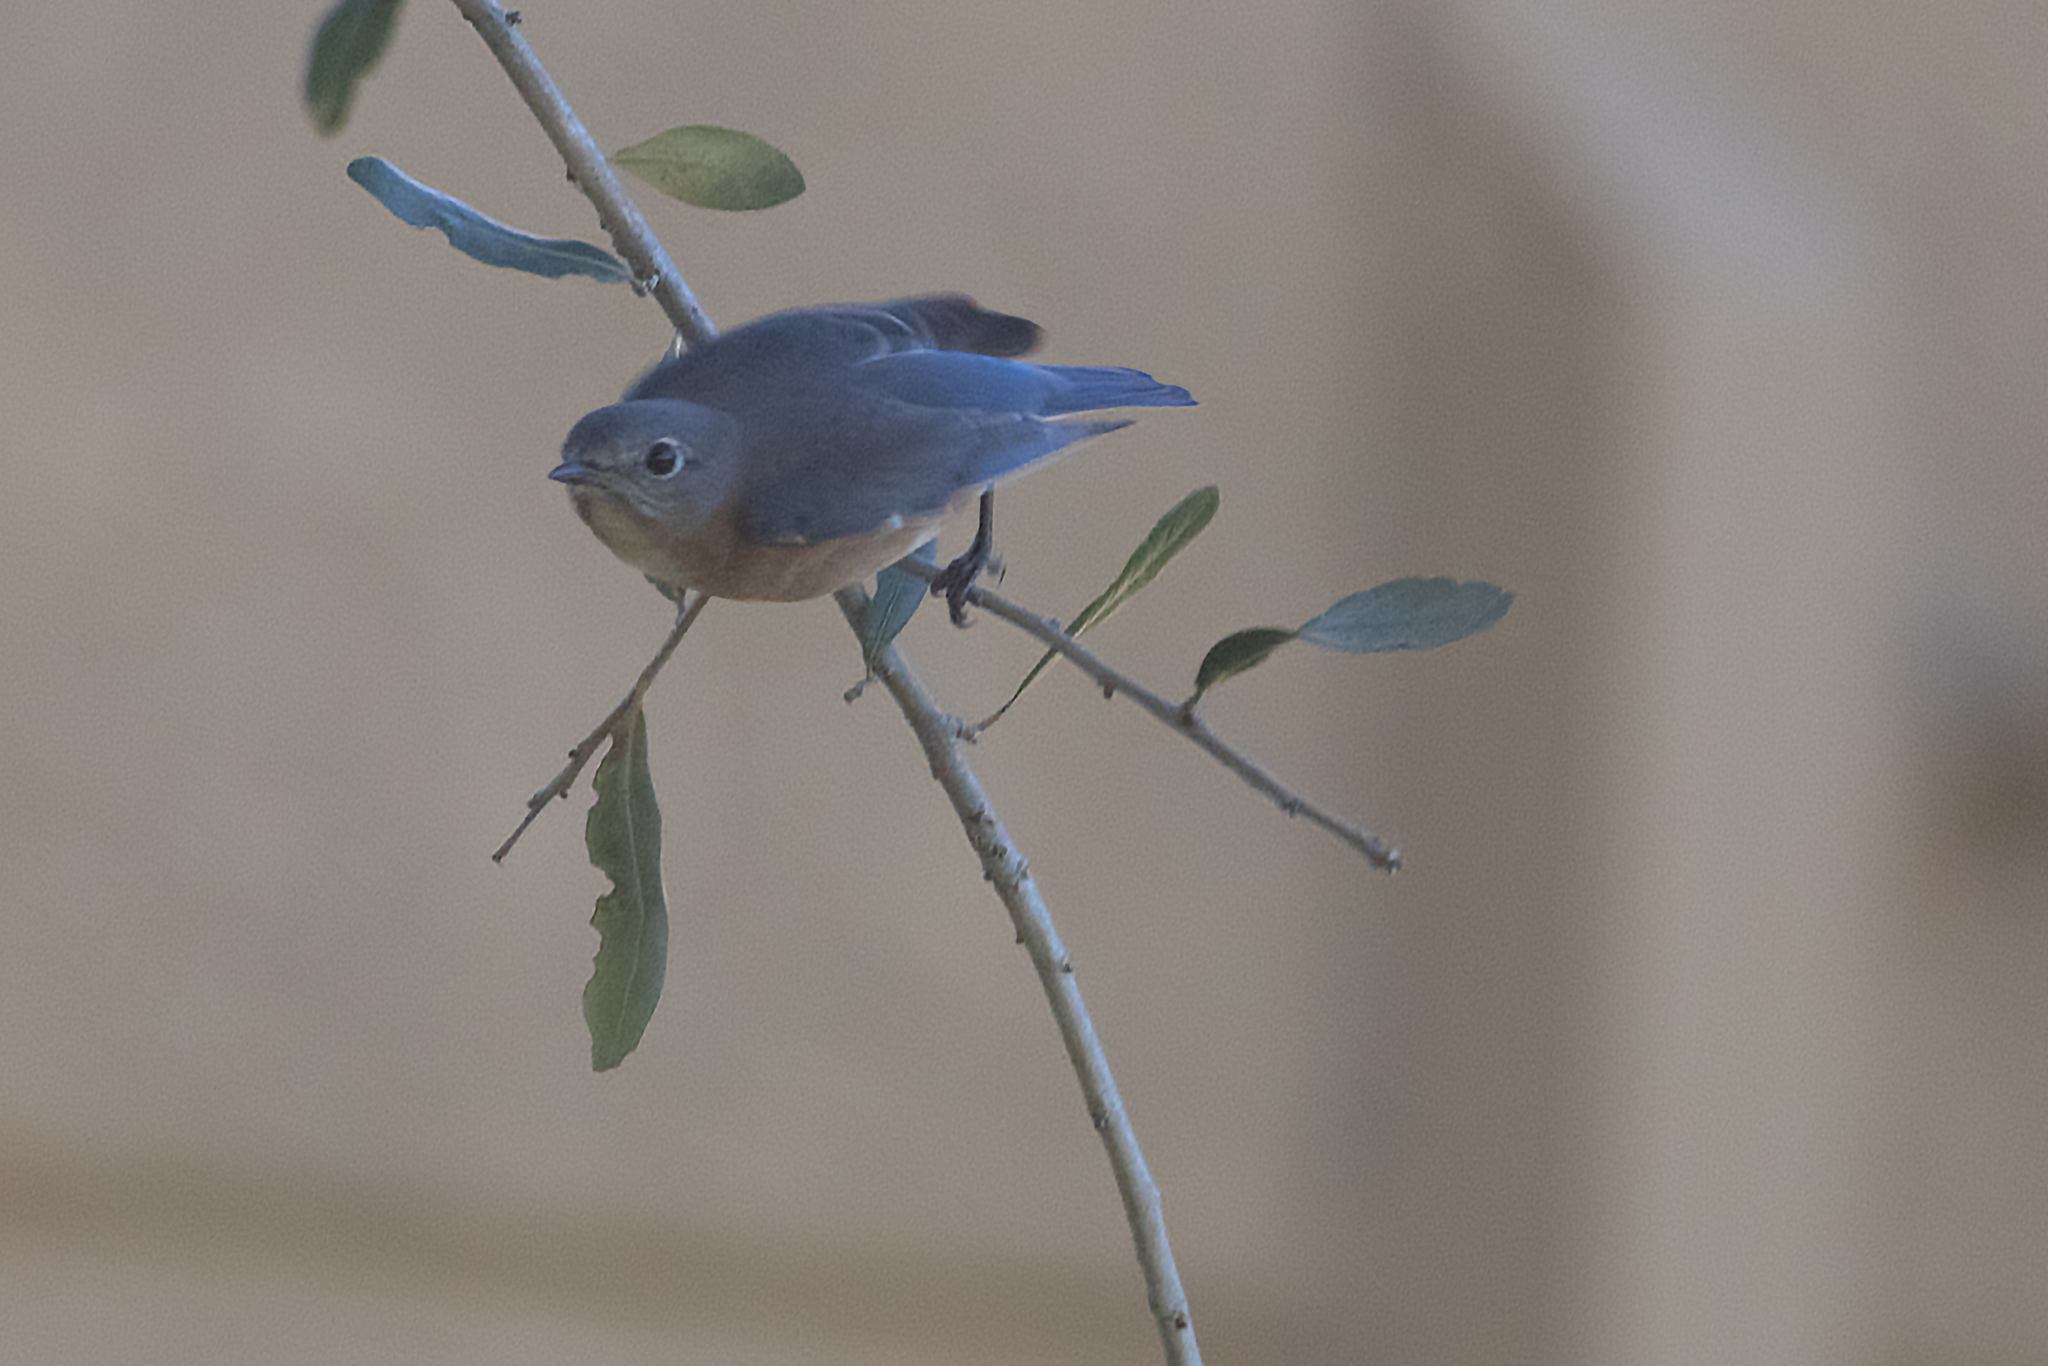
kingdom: Animalia
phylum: Chordata
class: Aves
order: Passeriformes
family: Turdidae
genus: Sialia
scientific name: Sialia sialis
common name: Eastern bluebird
